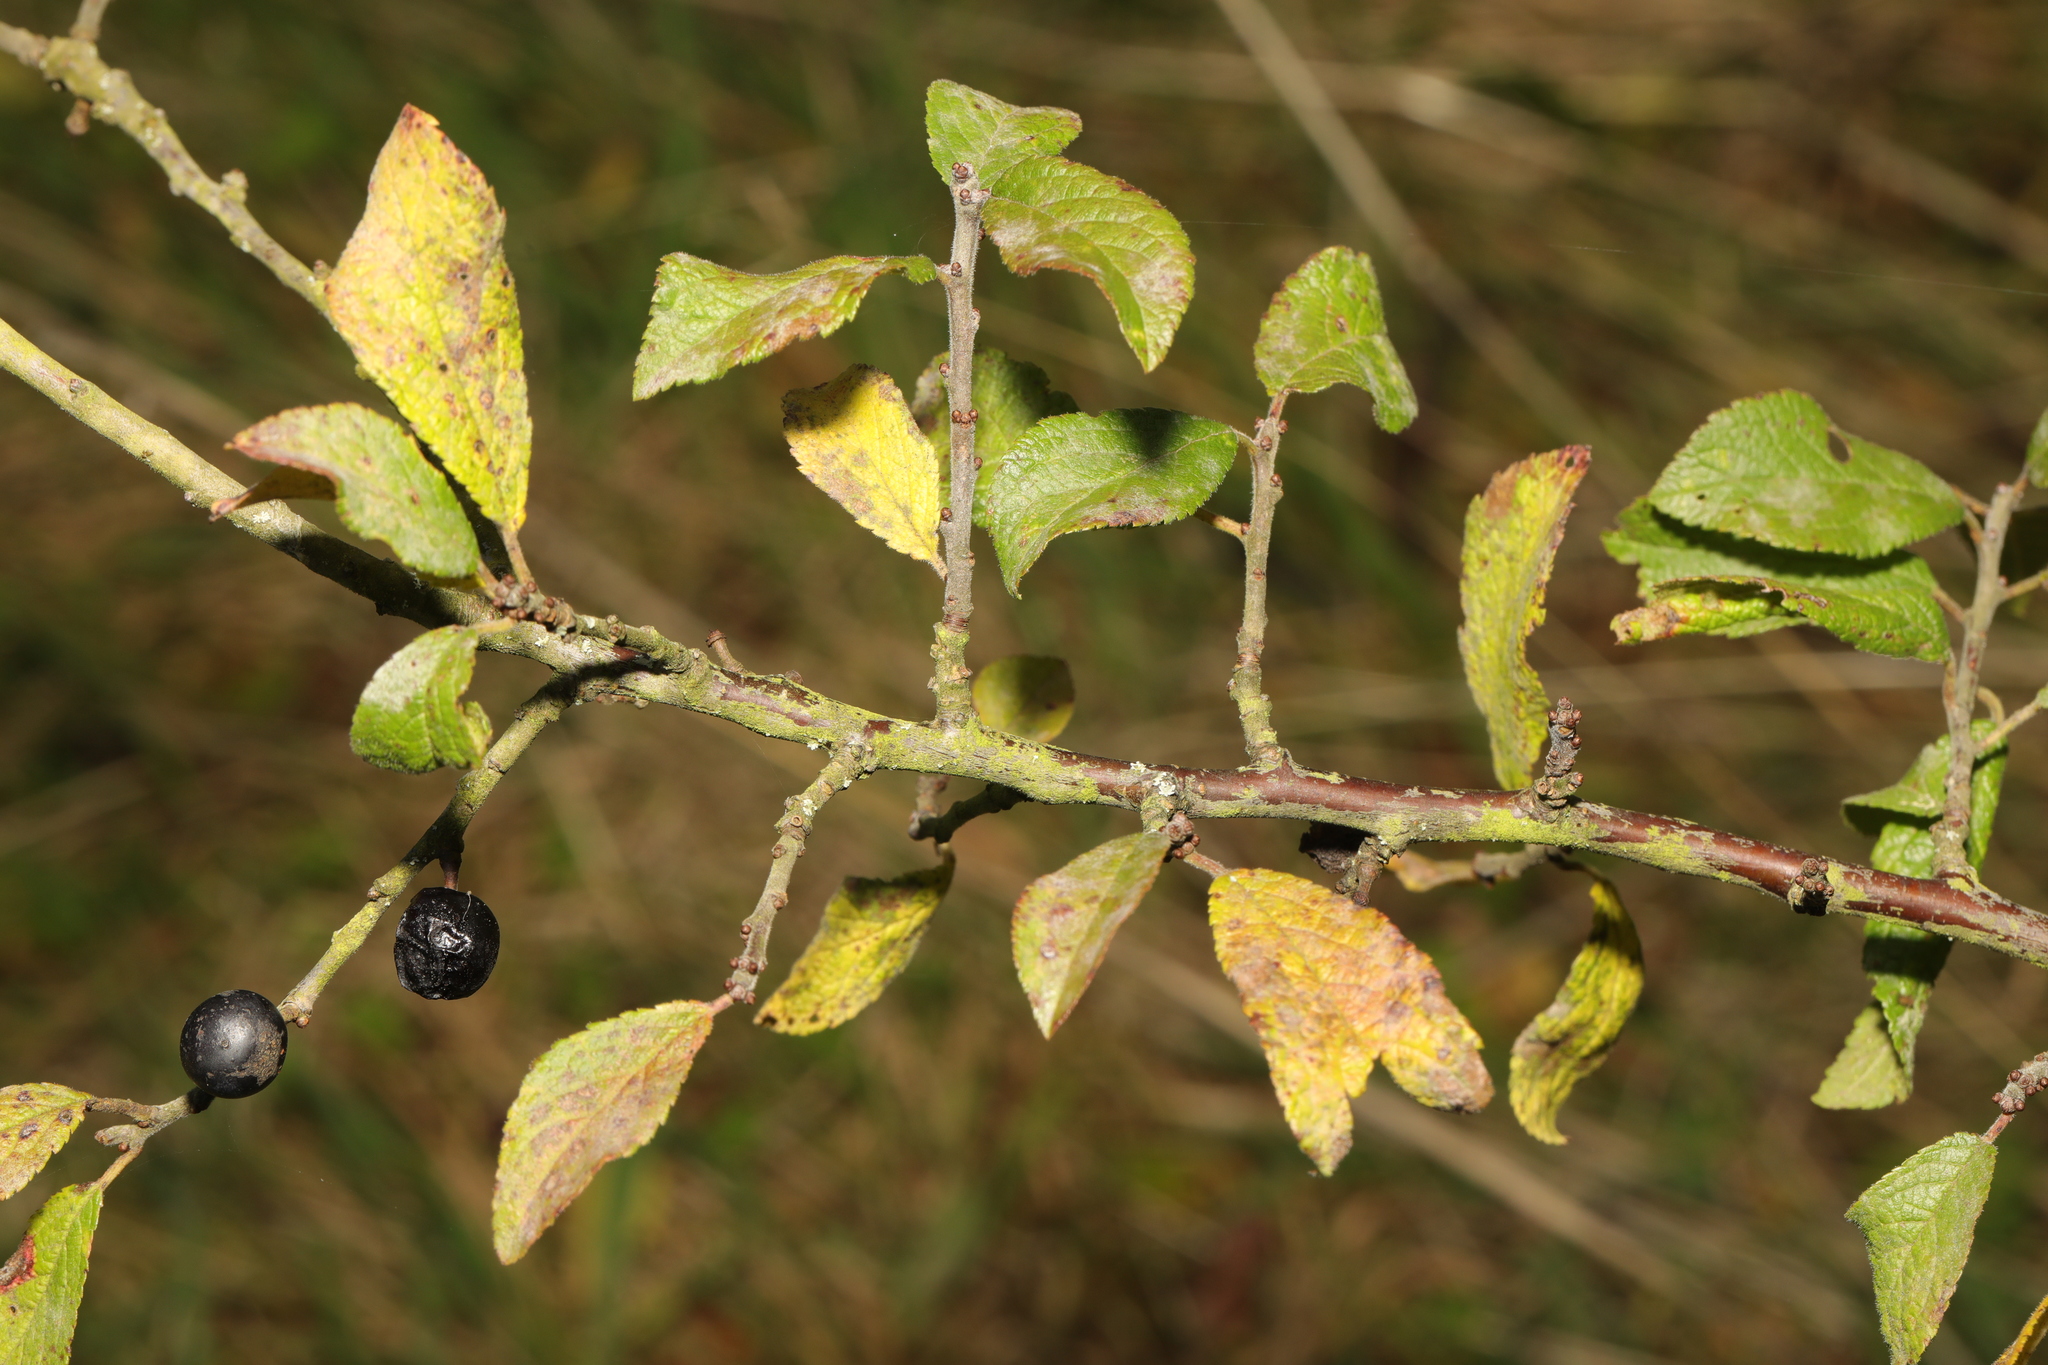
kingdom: Plantae
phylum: Tracheophyta
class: Magnoliopsida
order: Rosales
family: Rosaceae
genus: Prunus
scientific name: Prunus spinosa
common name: Blackthorn
